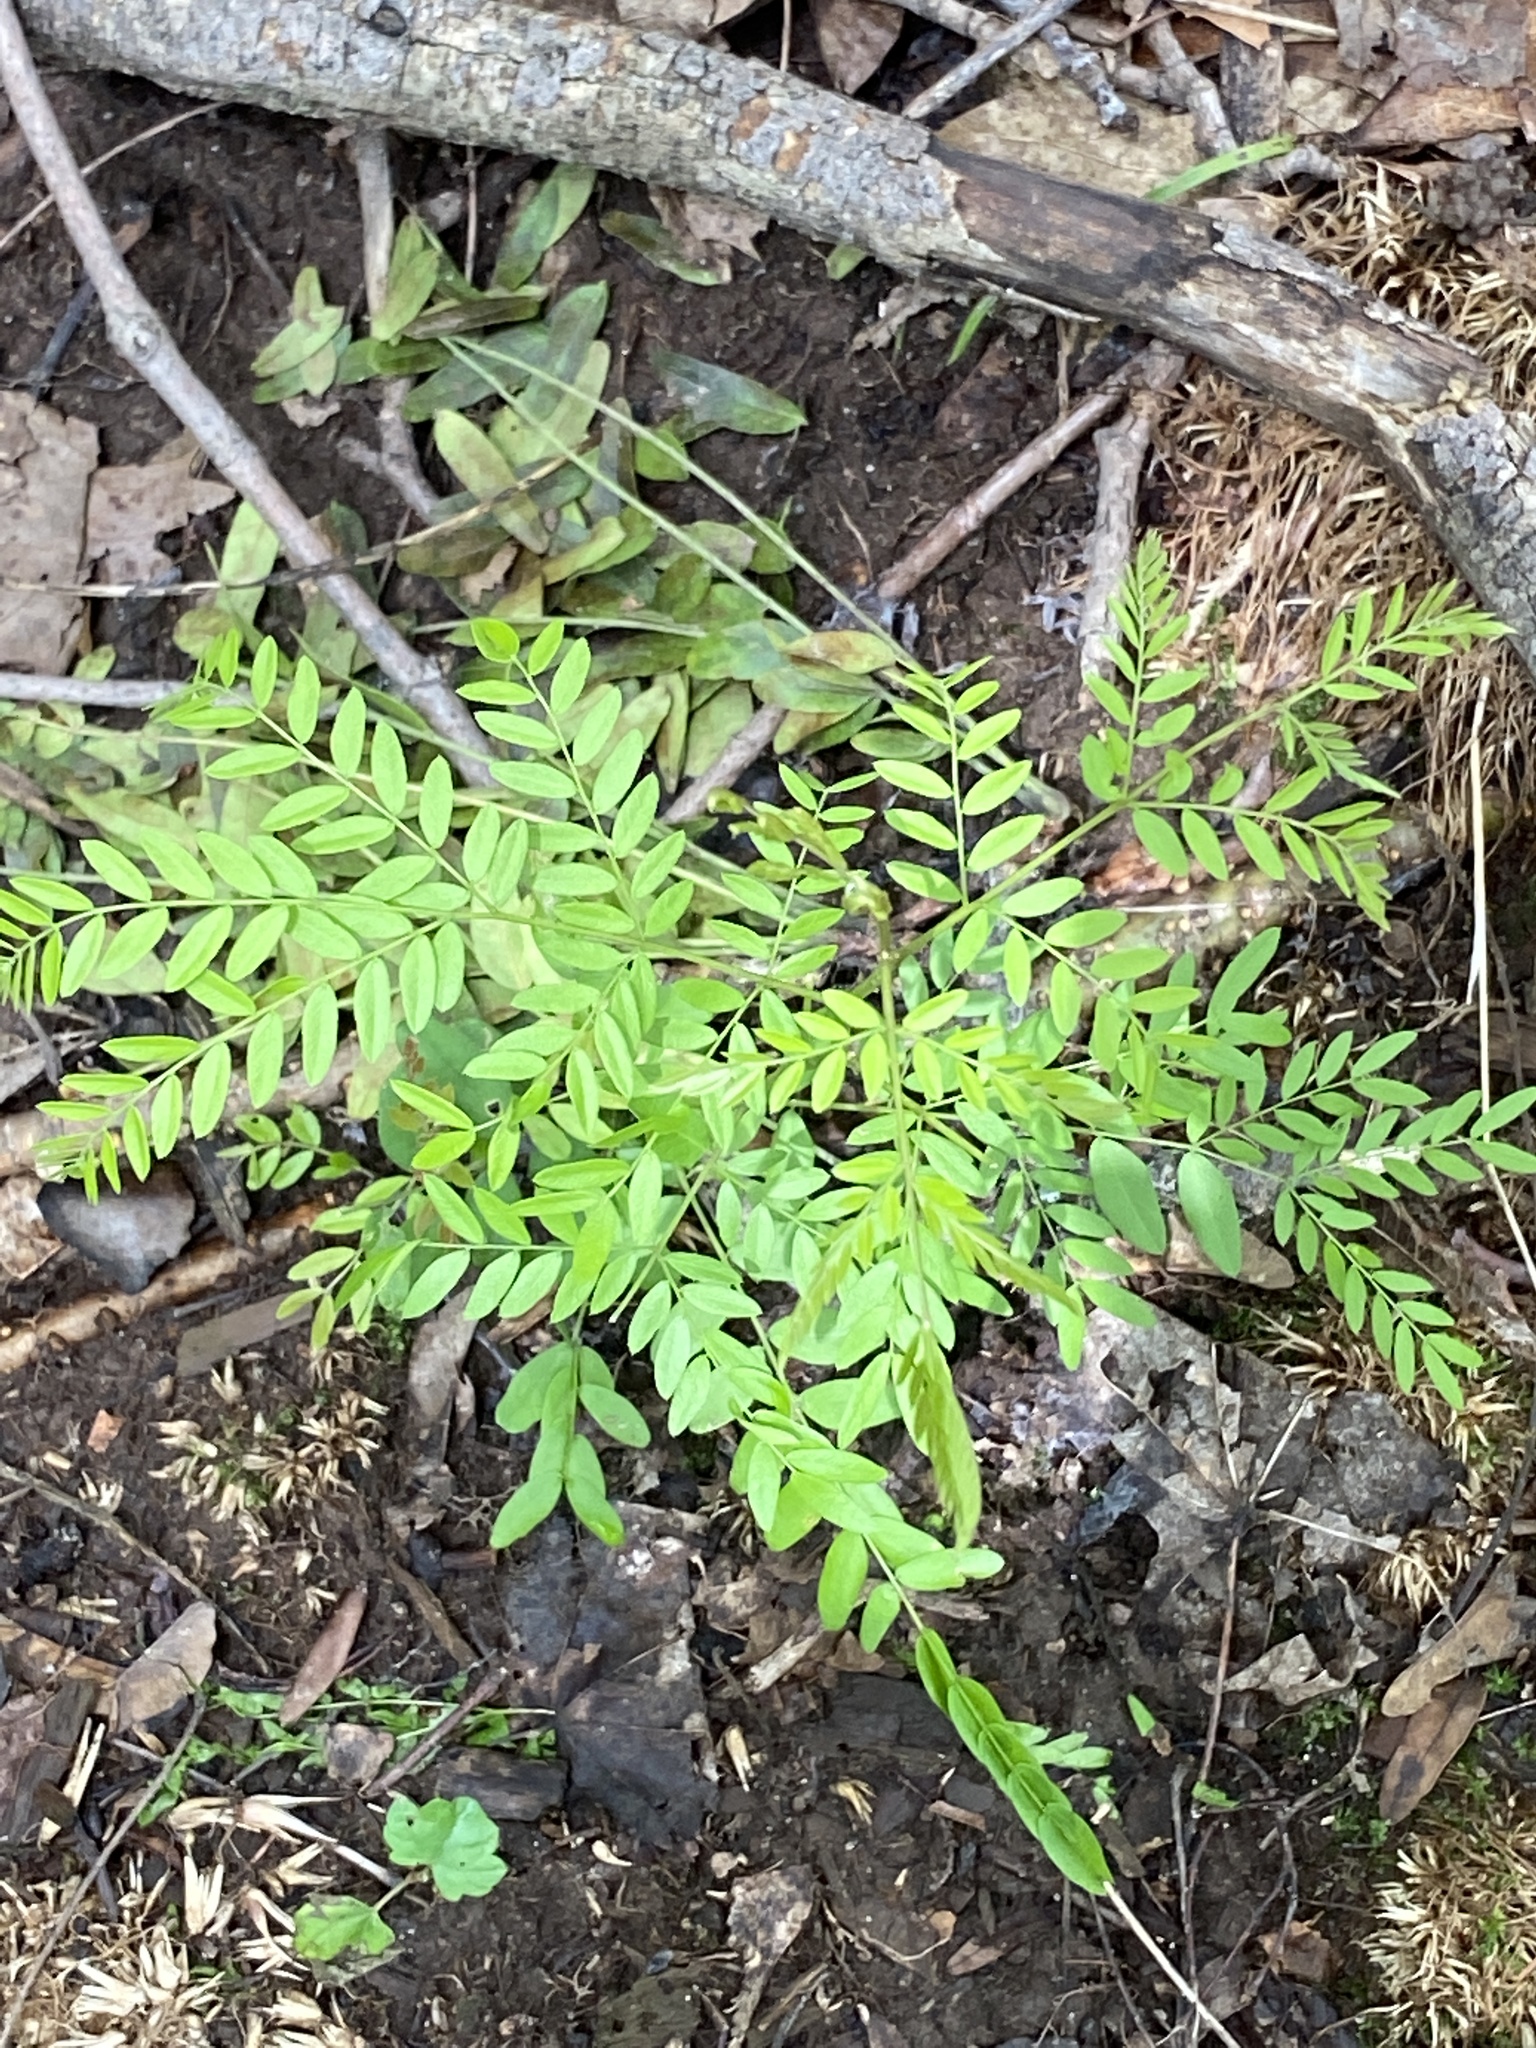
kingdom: Plantae
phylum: Tracheophyta
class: Magnoliopsida
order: Fabales
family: Fabaceae
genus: Gleditsia
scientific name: Gleditsia triacanthos
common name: Common honeylocust
